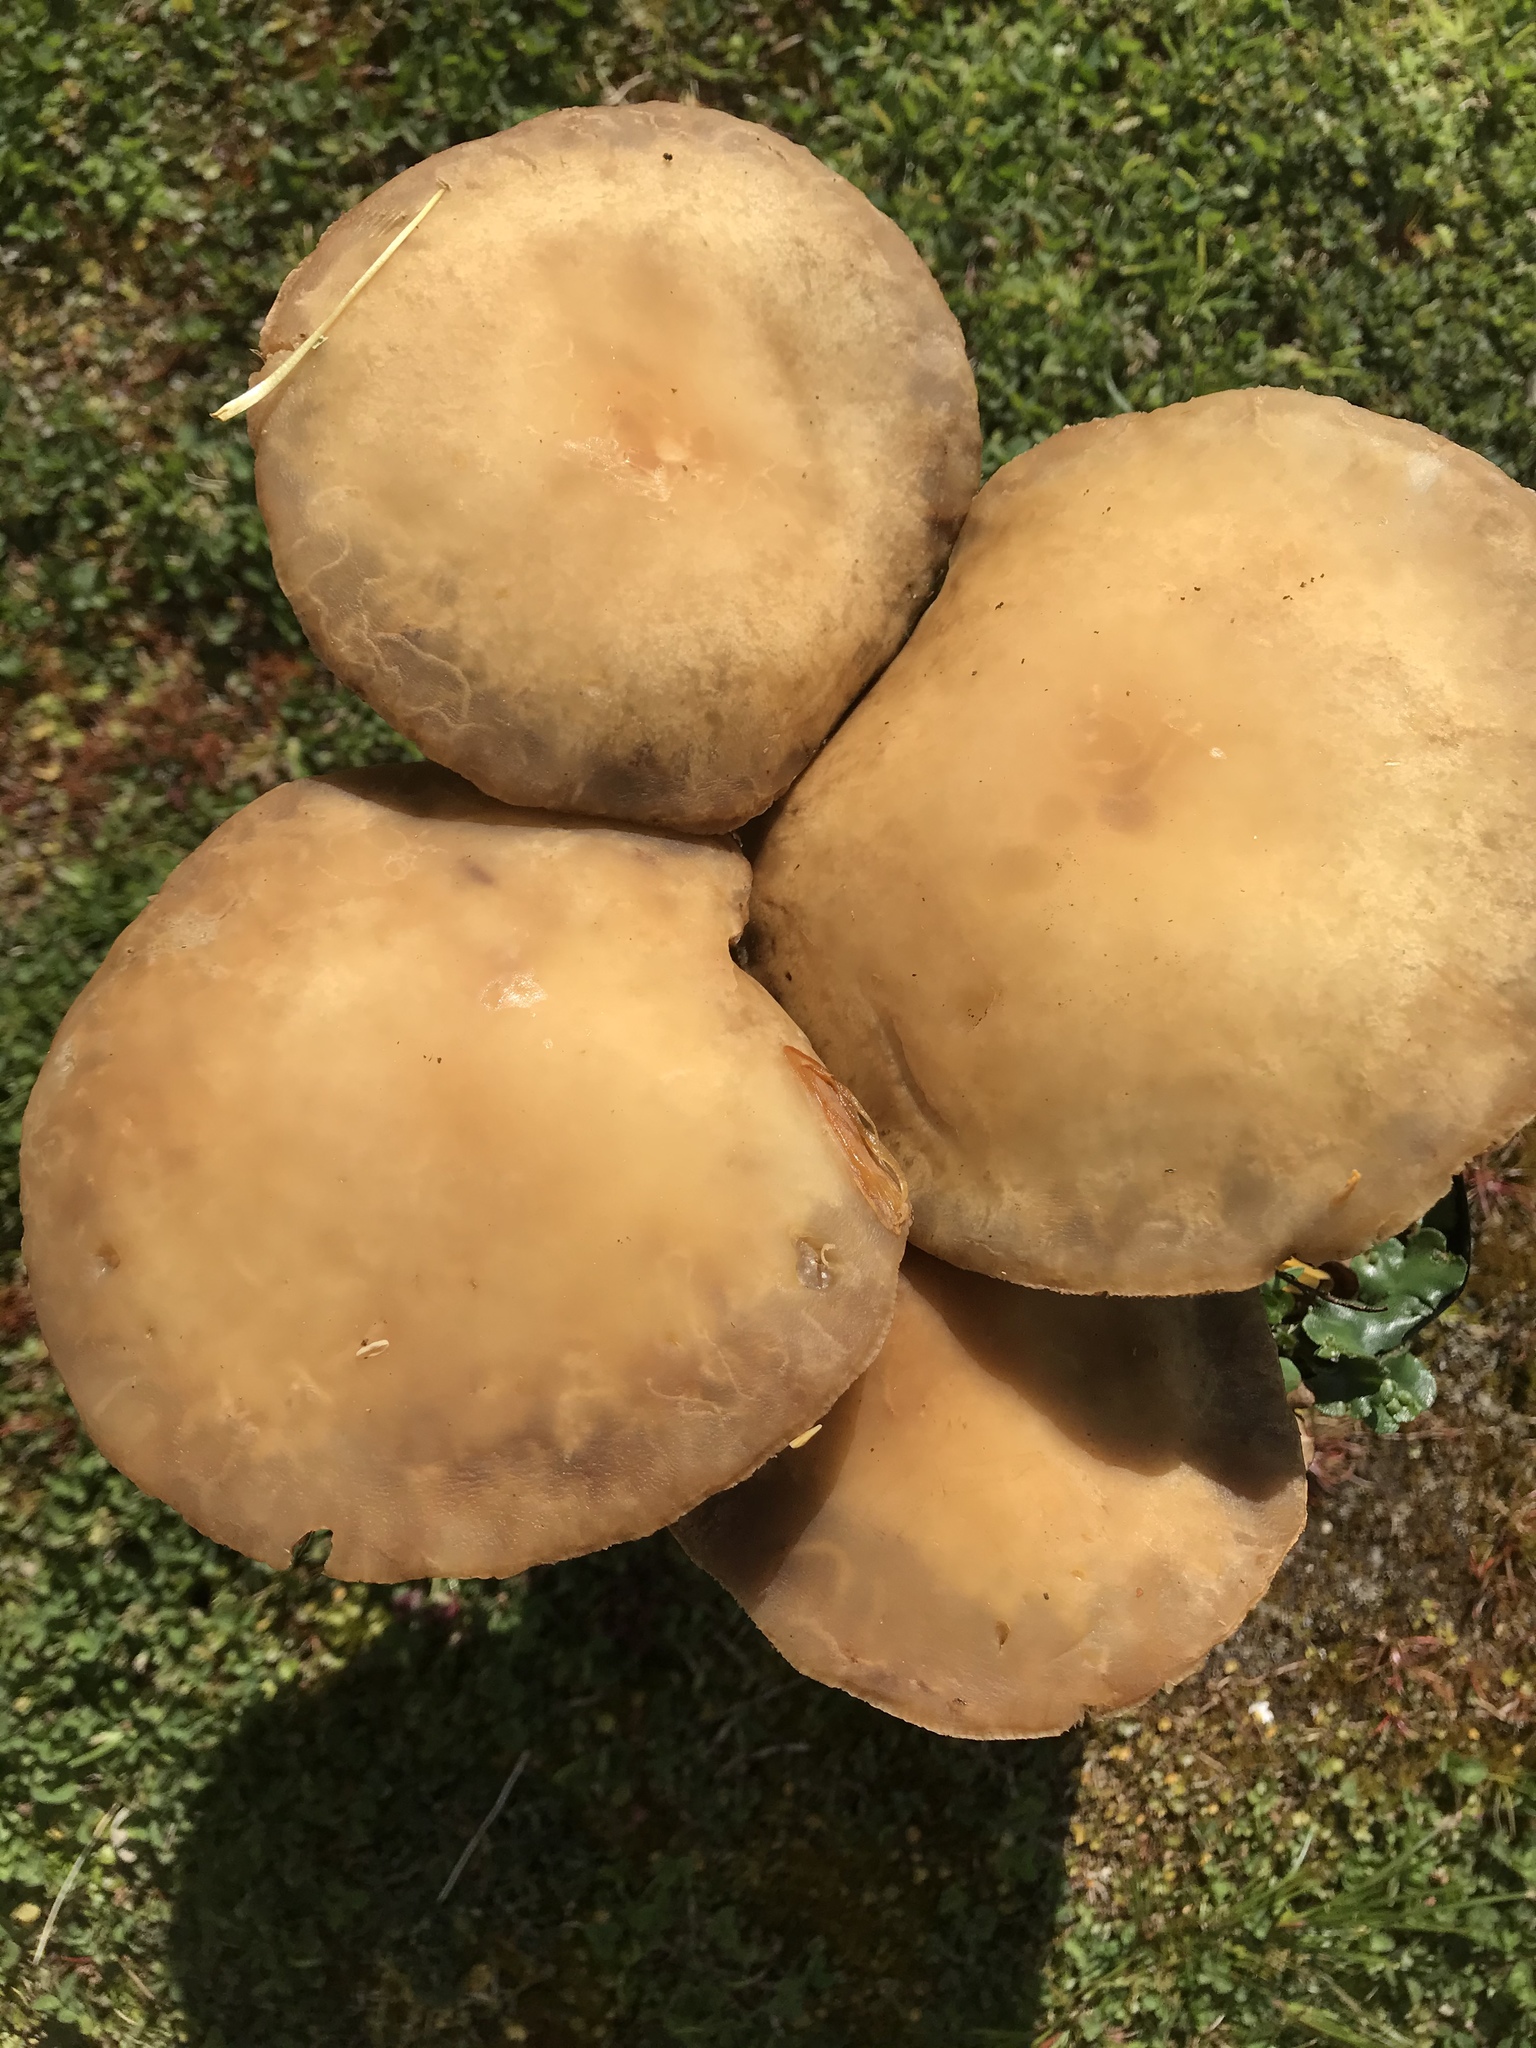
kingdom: Fungi
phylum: Basidiomycota
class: Agaricomycetes
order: Agaricales
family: Strophariaceae
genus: Agrocybe
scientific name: Agrocybe praecox
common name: Spring fieldcap
